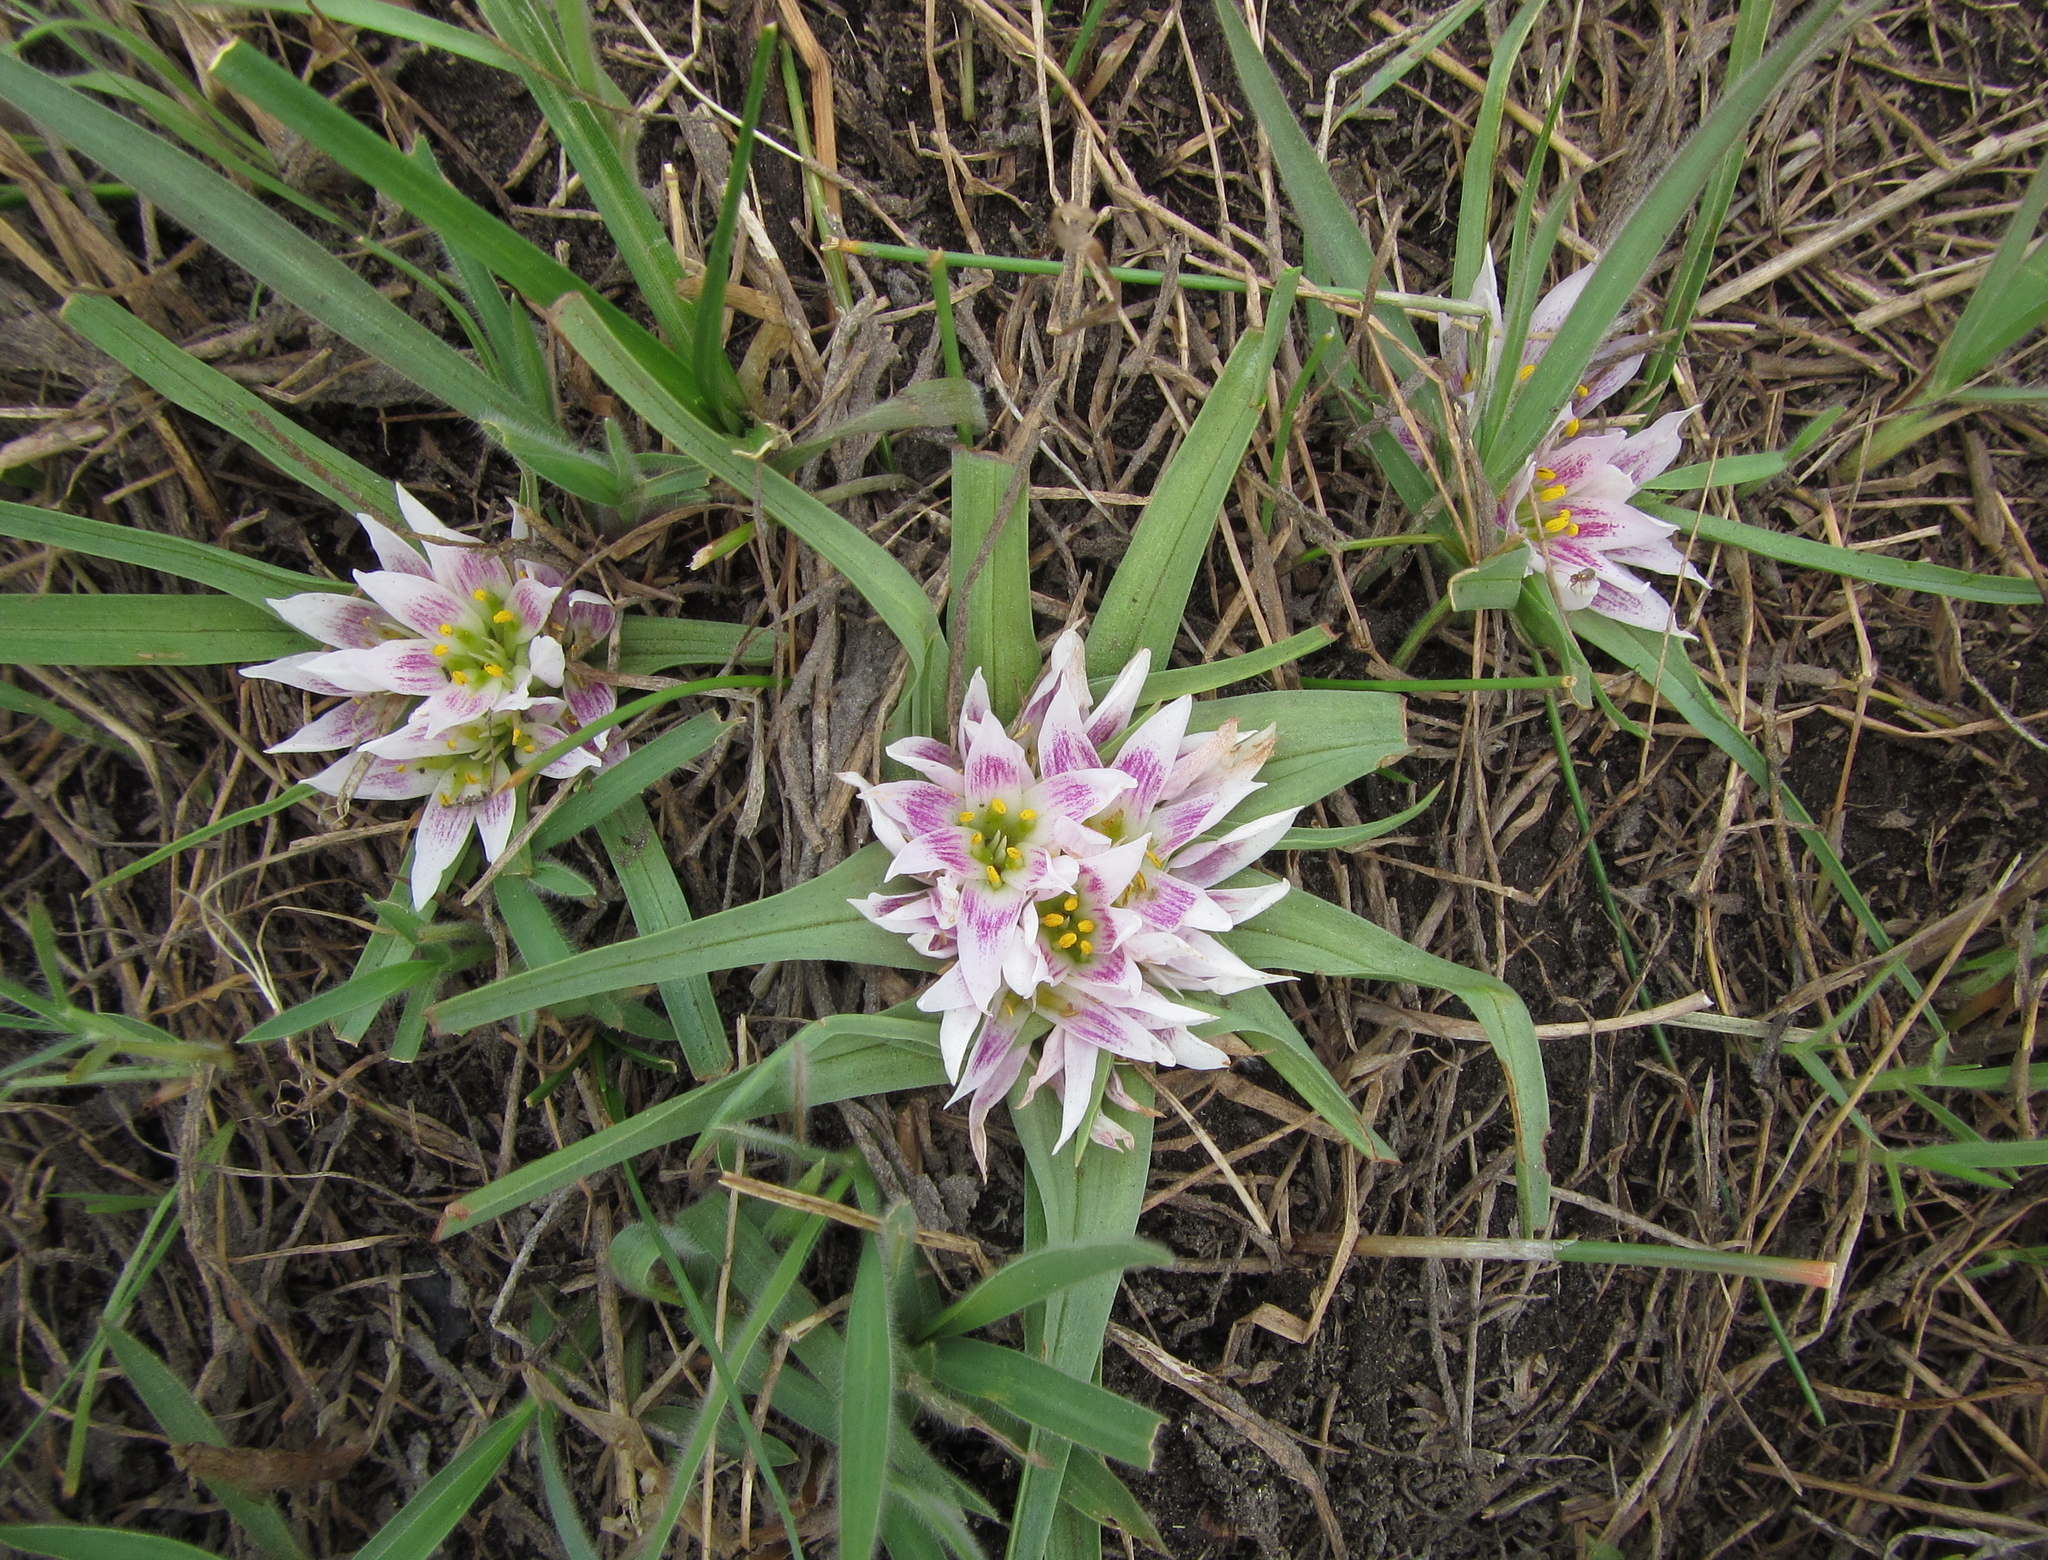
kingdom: Plantae
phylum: Tracheophyta
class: Liliopsida
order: Liliales
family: Colchicaceae
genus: Colchicum
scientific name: Colchicum roseum
